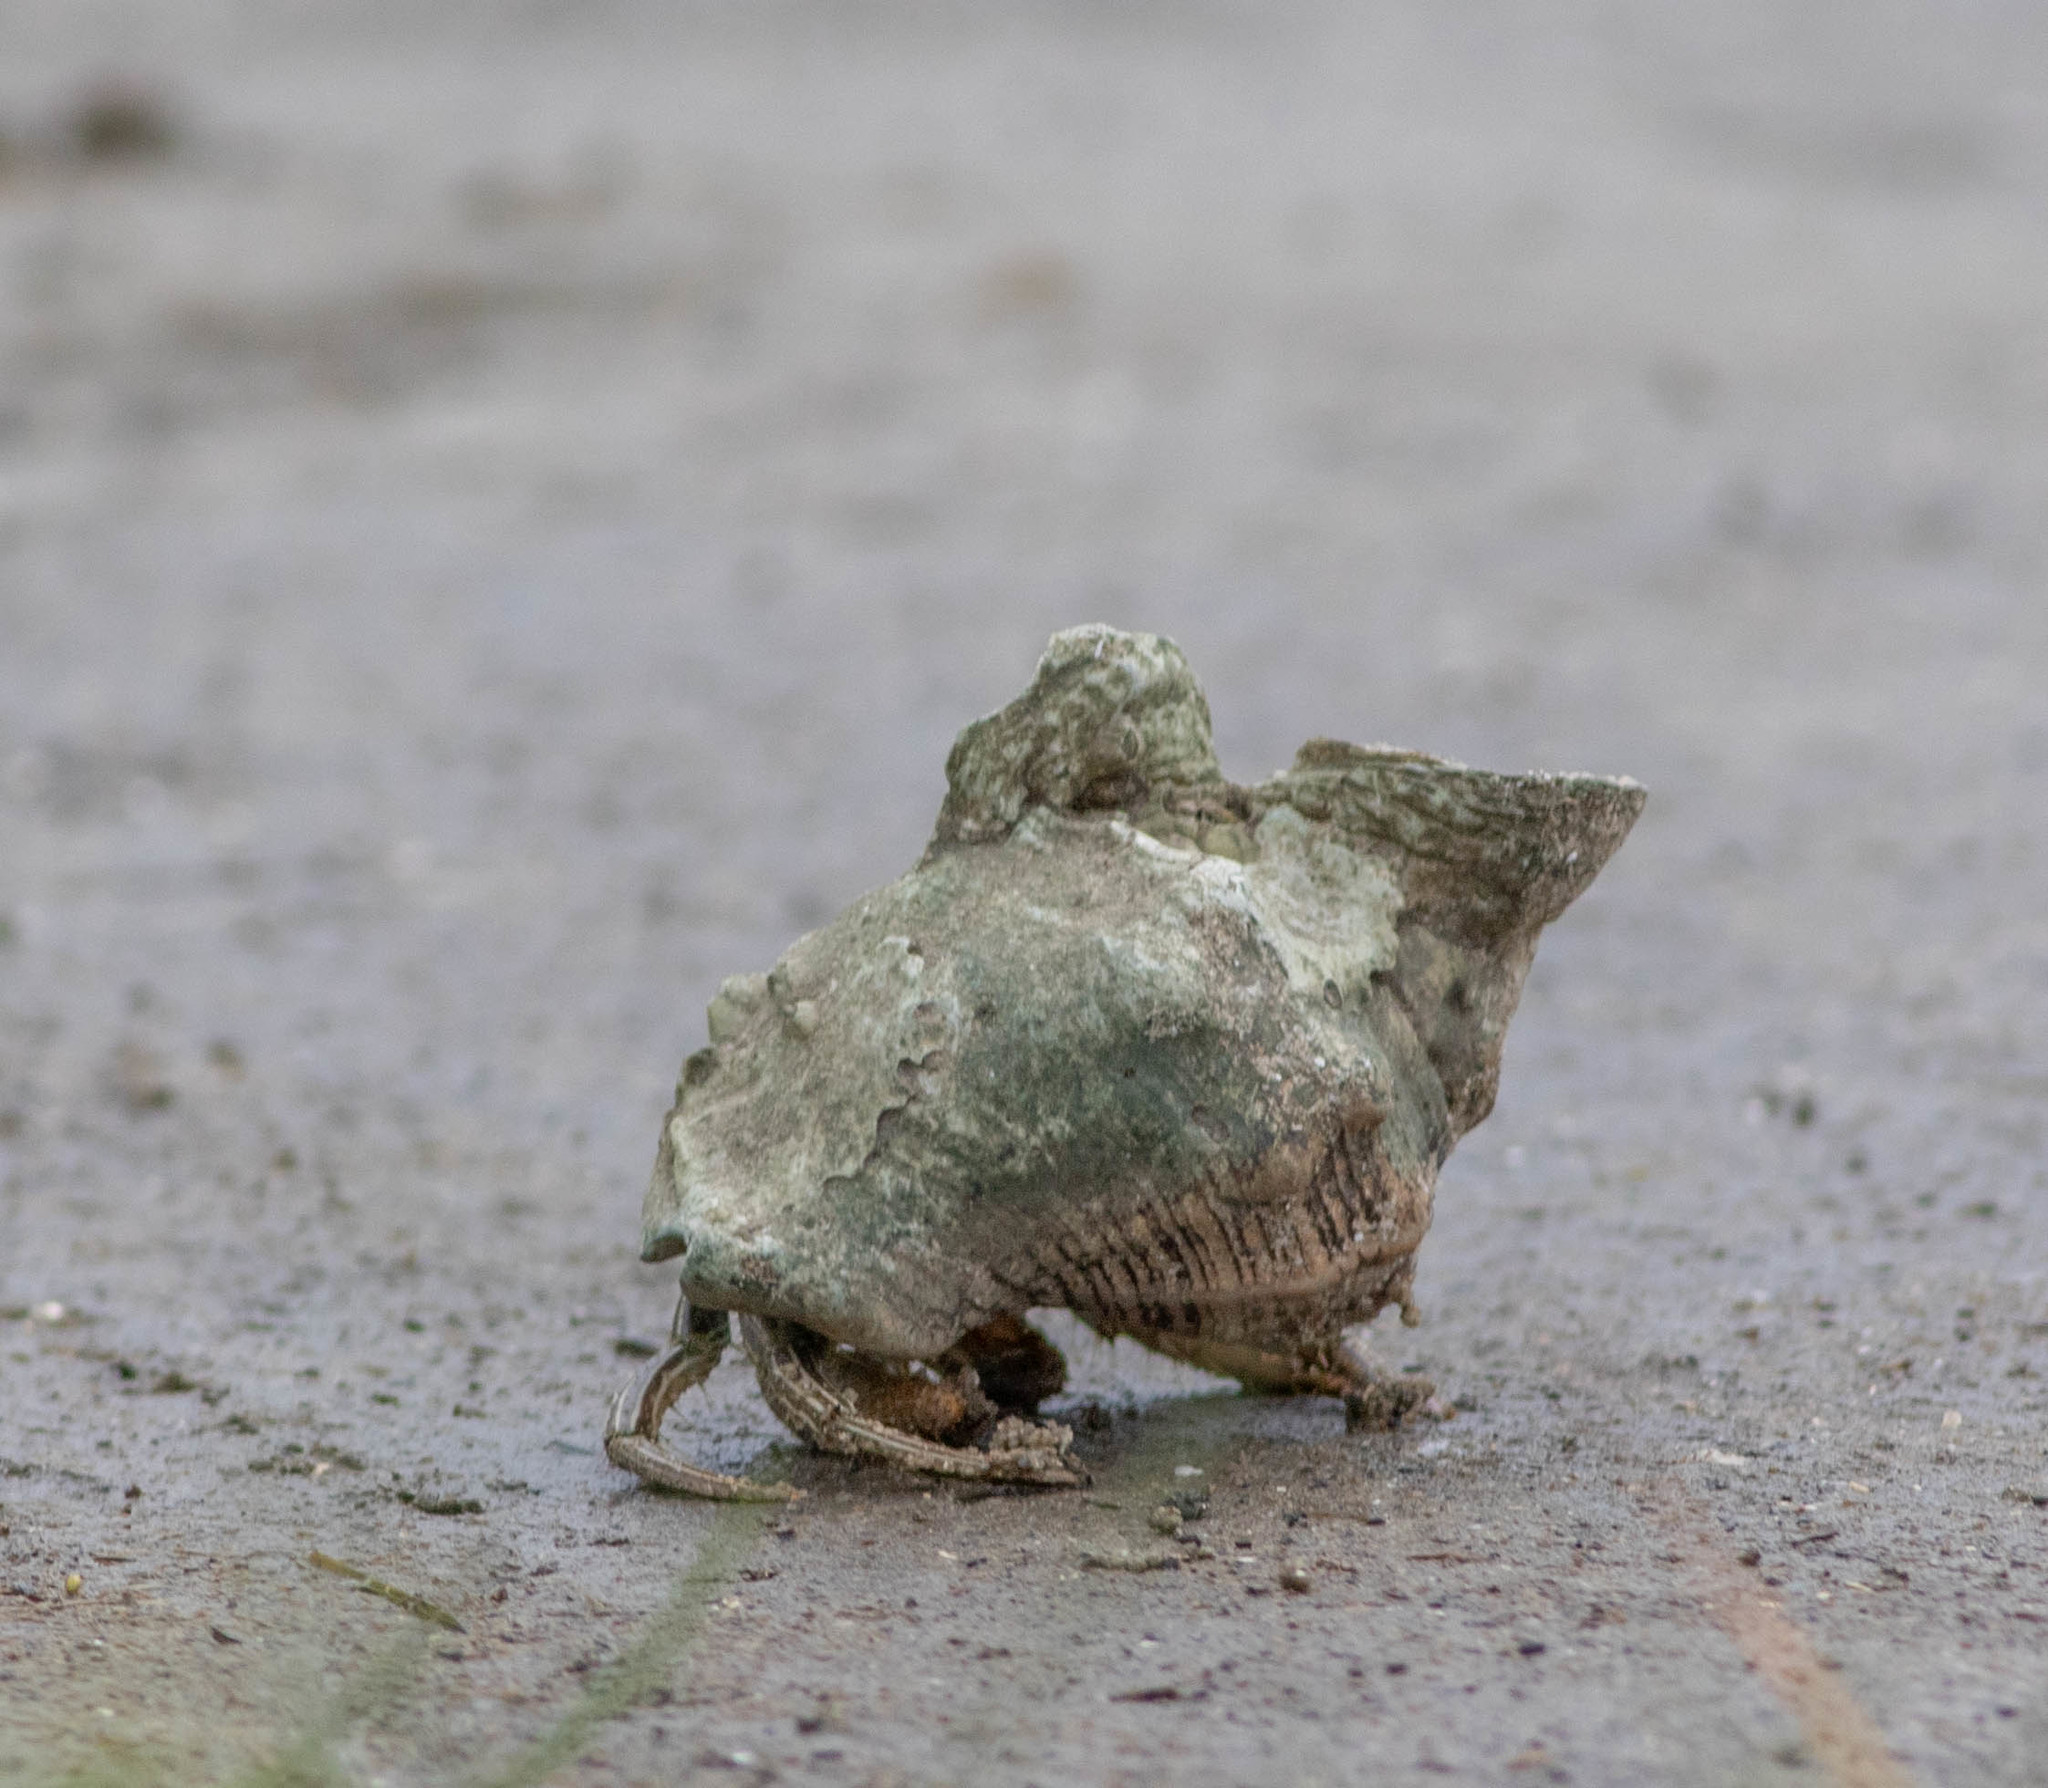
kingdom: Animalia
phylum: Arthropoda
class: Malacostraca
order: Decapoda
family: Diogenidae
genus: Clibanarius
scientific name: Clibanarius vittatus
